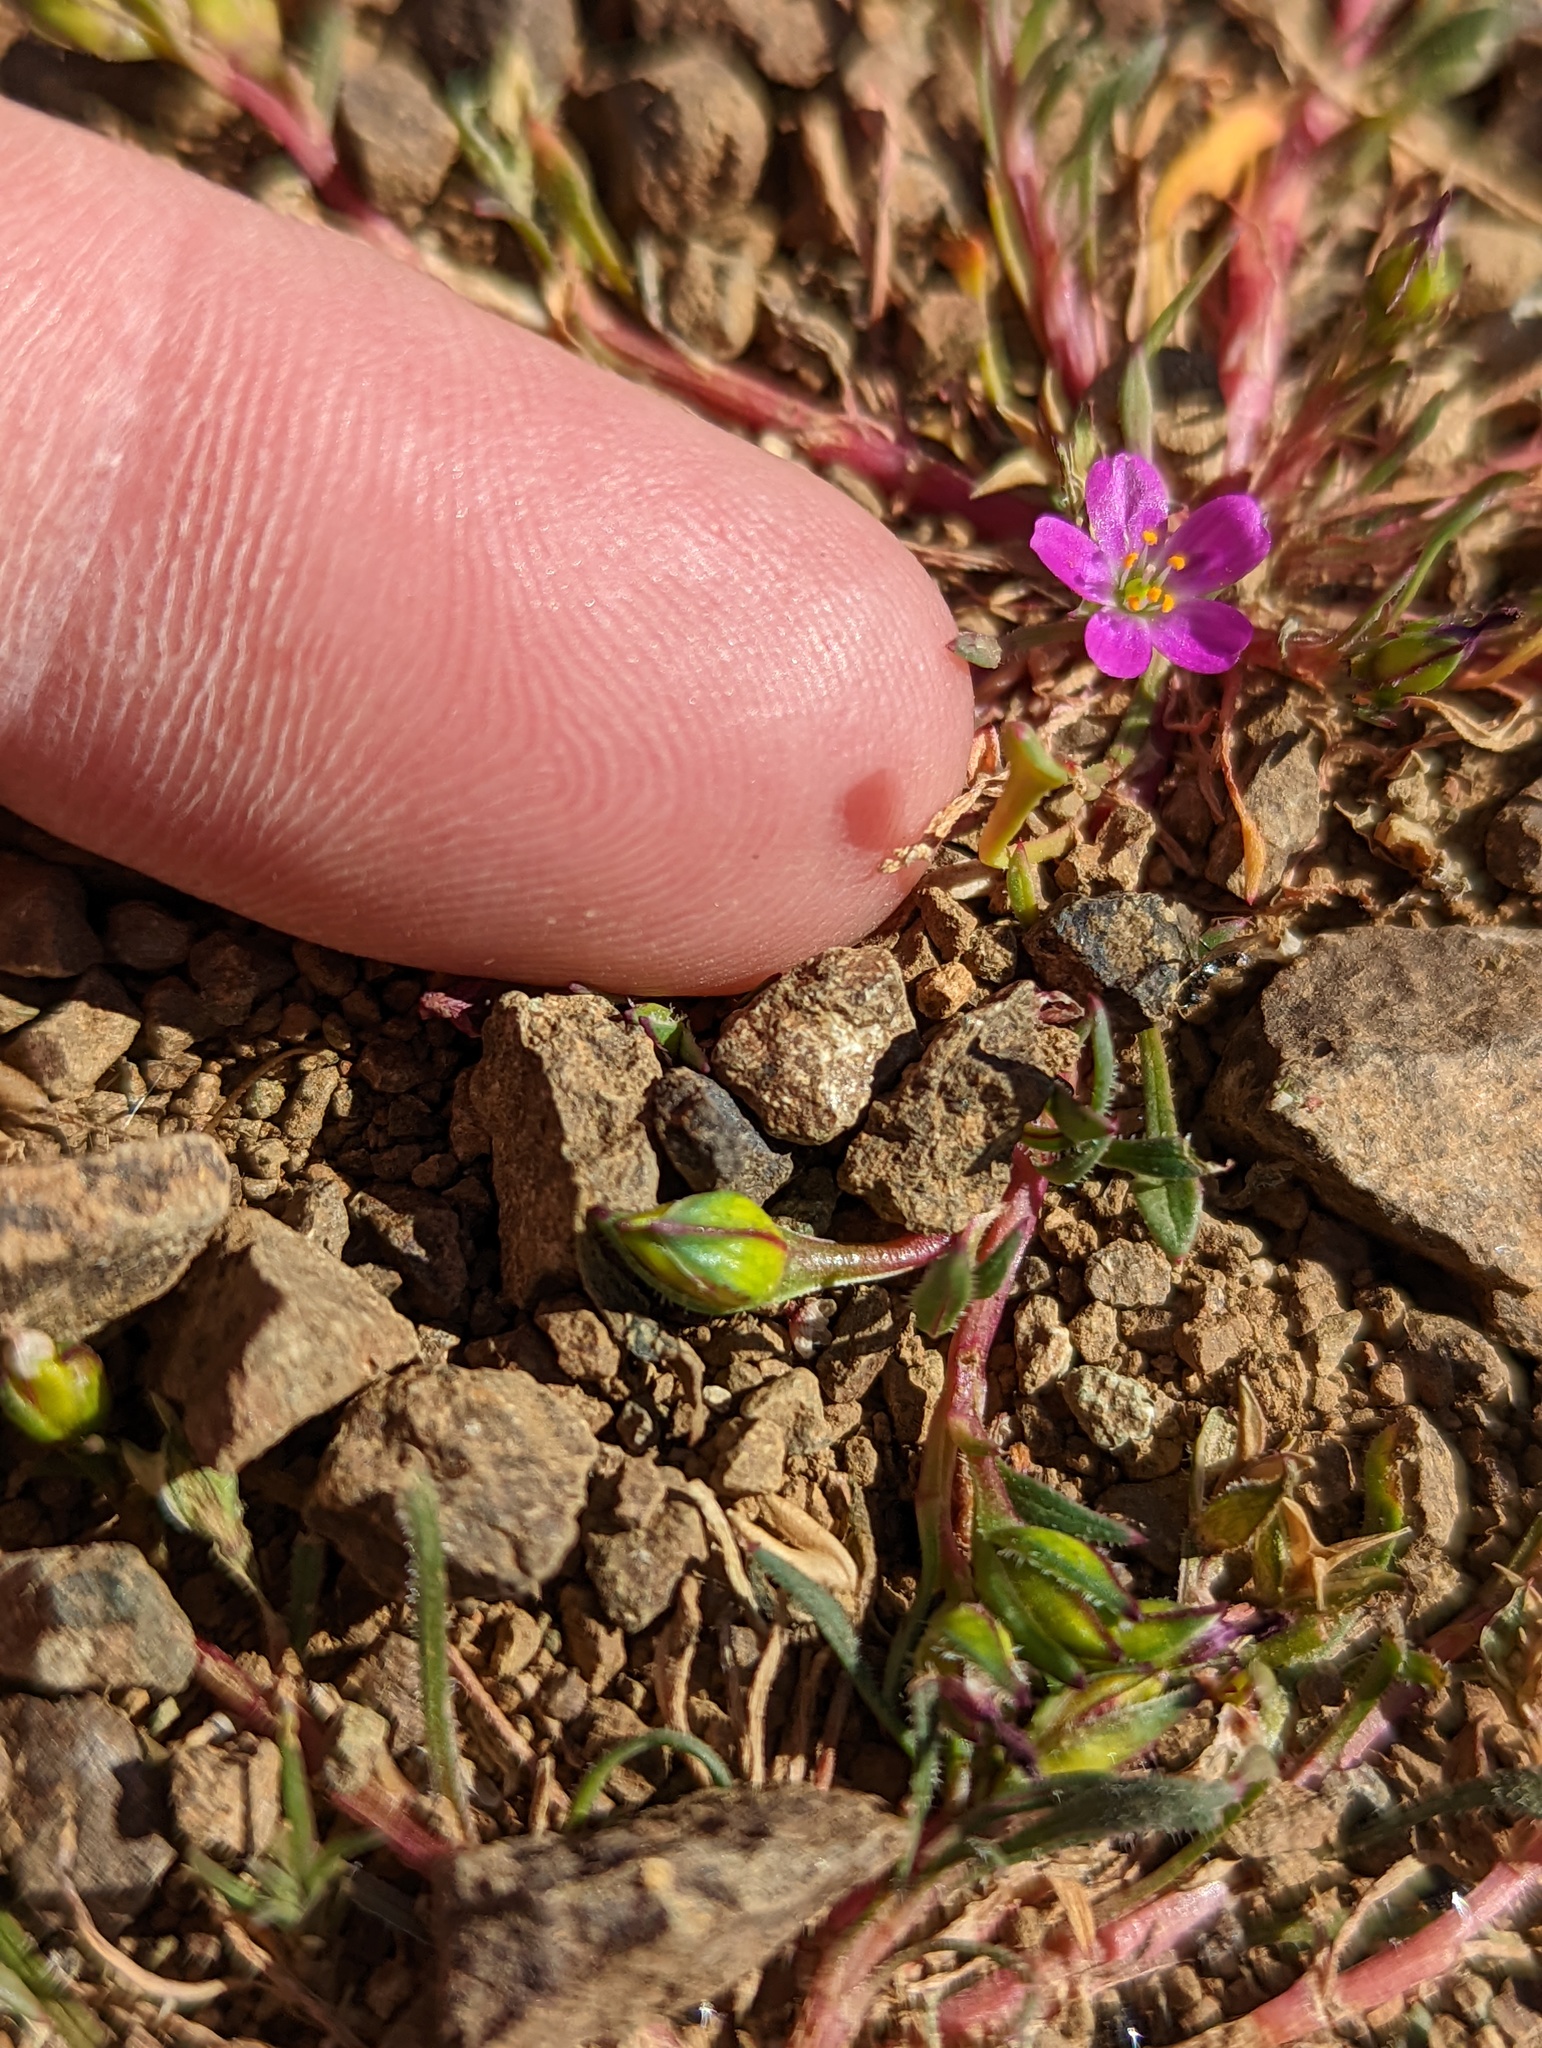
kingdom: Plantae
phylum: Tracheophyta
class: Magnoliopsida
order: Caryophyllales
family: Montiaceae
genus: Calandrinia
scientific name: Calandrinia menziesii
